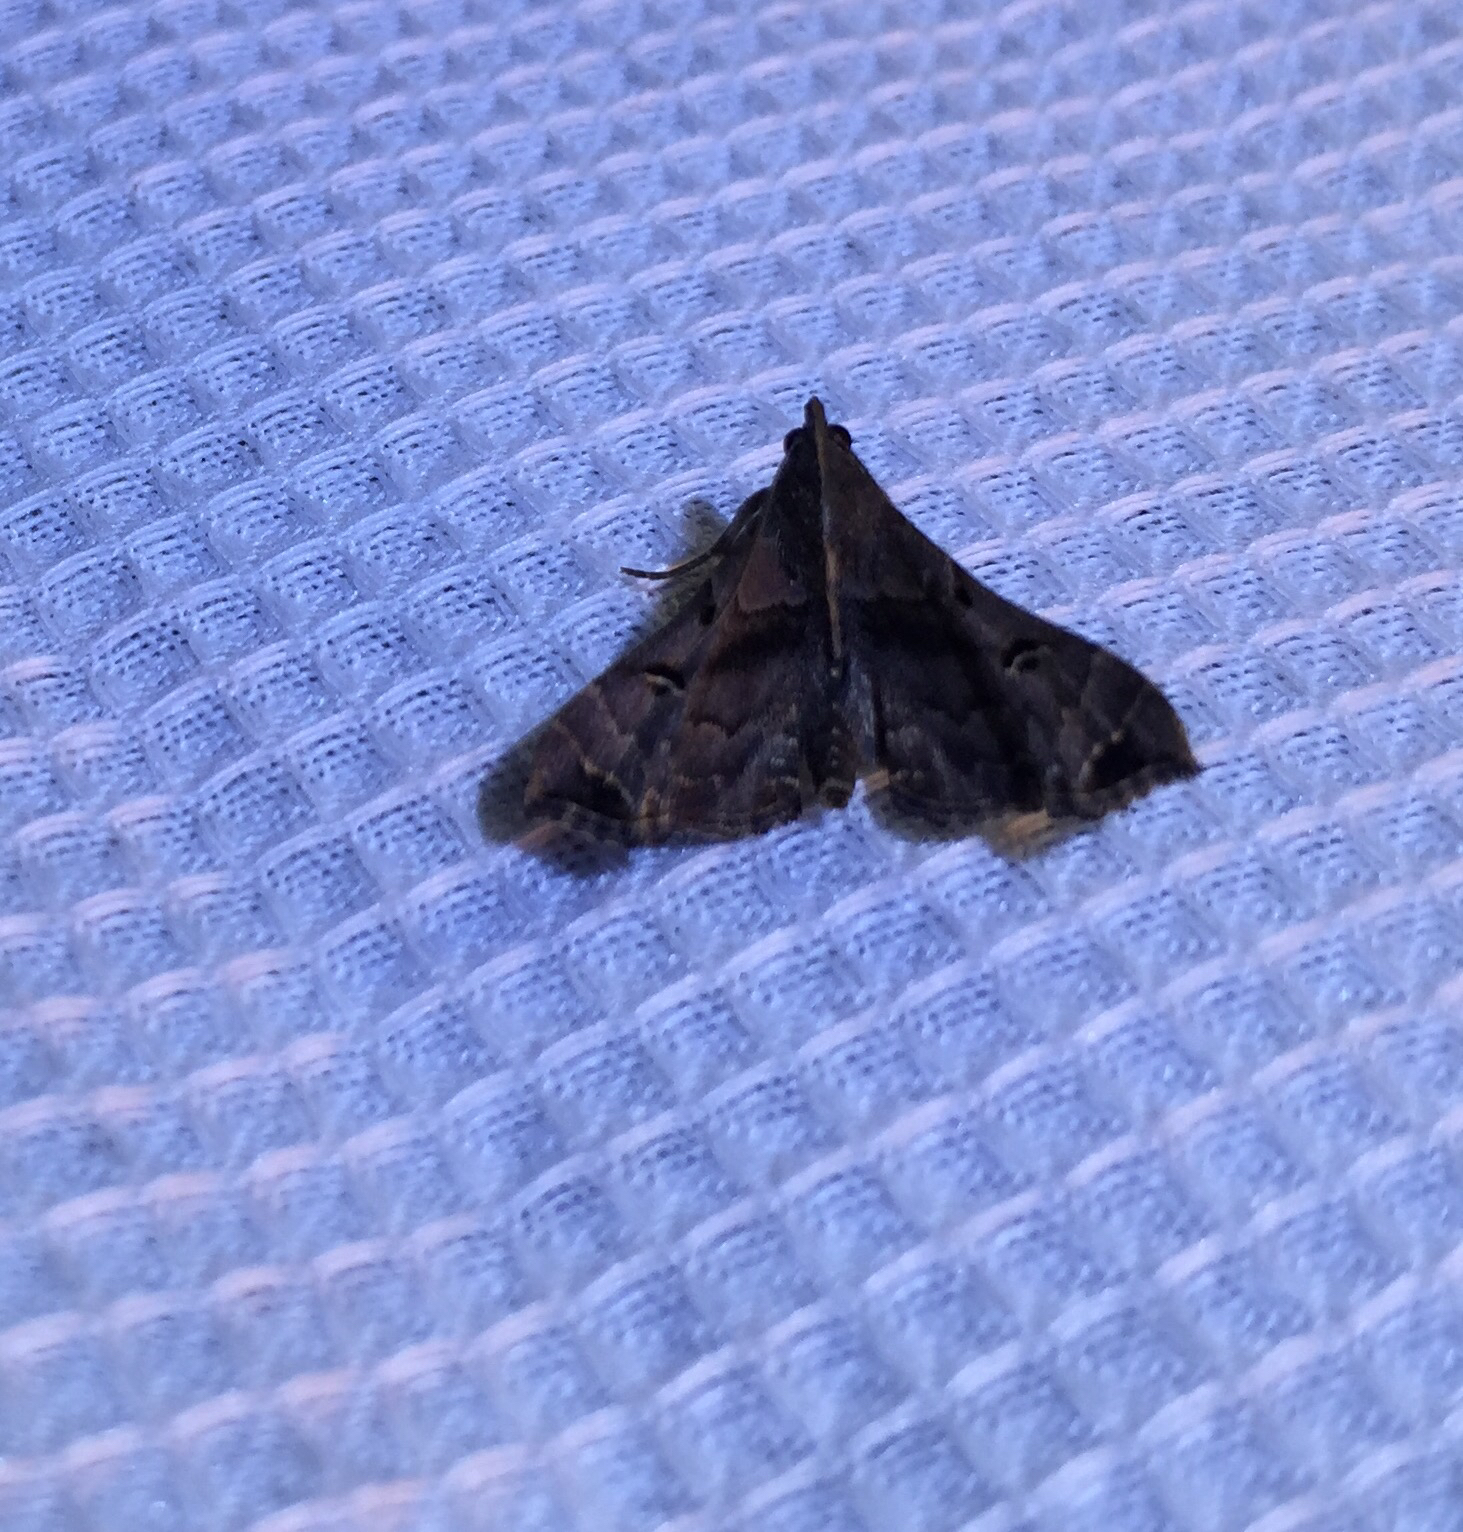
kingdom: Animalia
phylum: Arthropoda
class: Insecta
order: Lepidoptera
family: Erebidae
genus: Palthis
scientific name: Palthis asopialis
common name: Faint-spotted palthis moth
